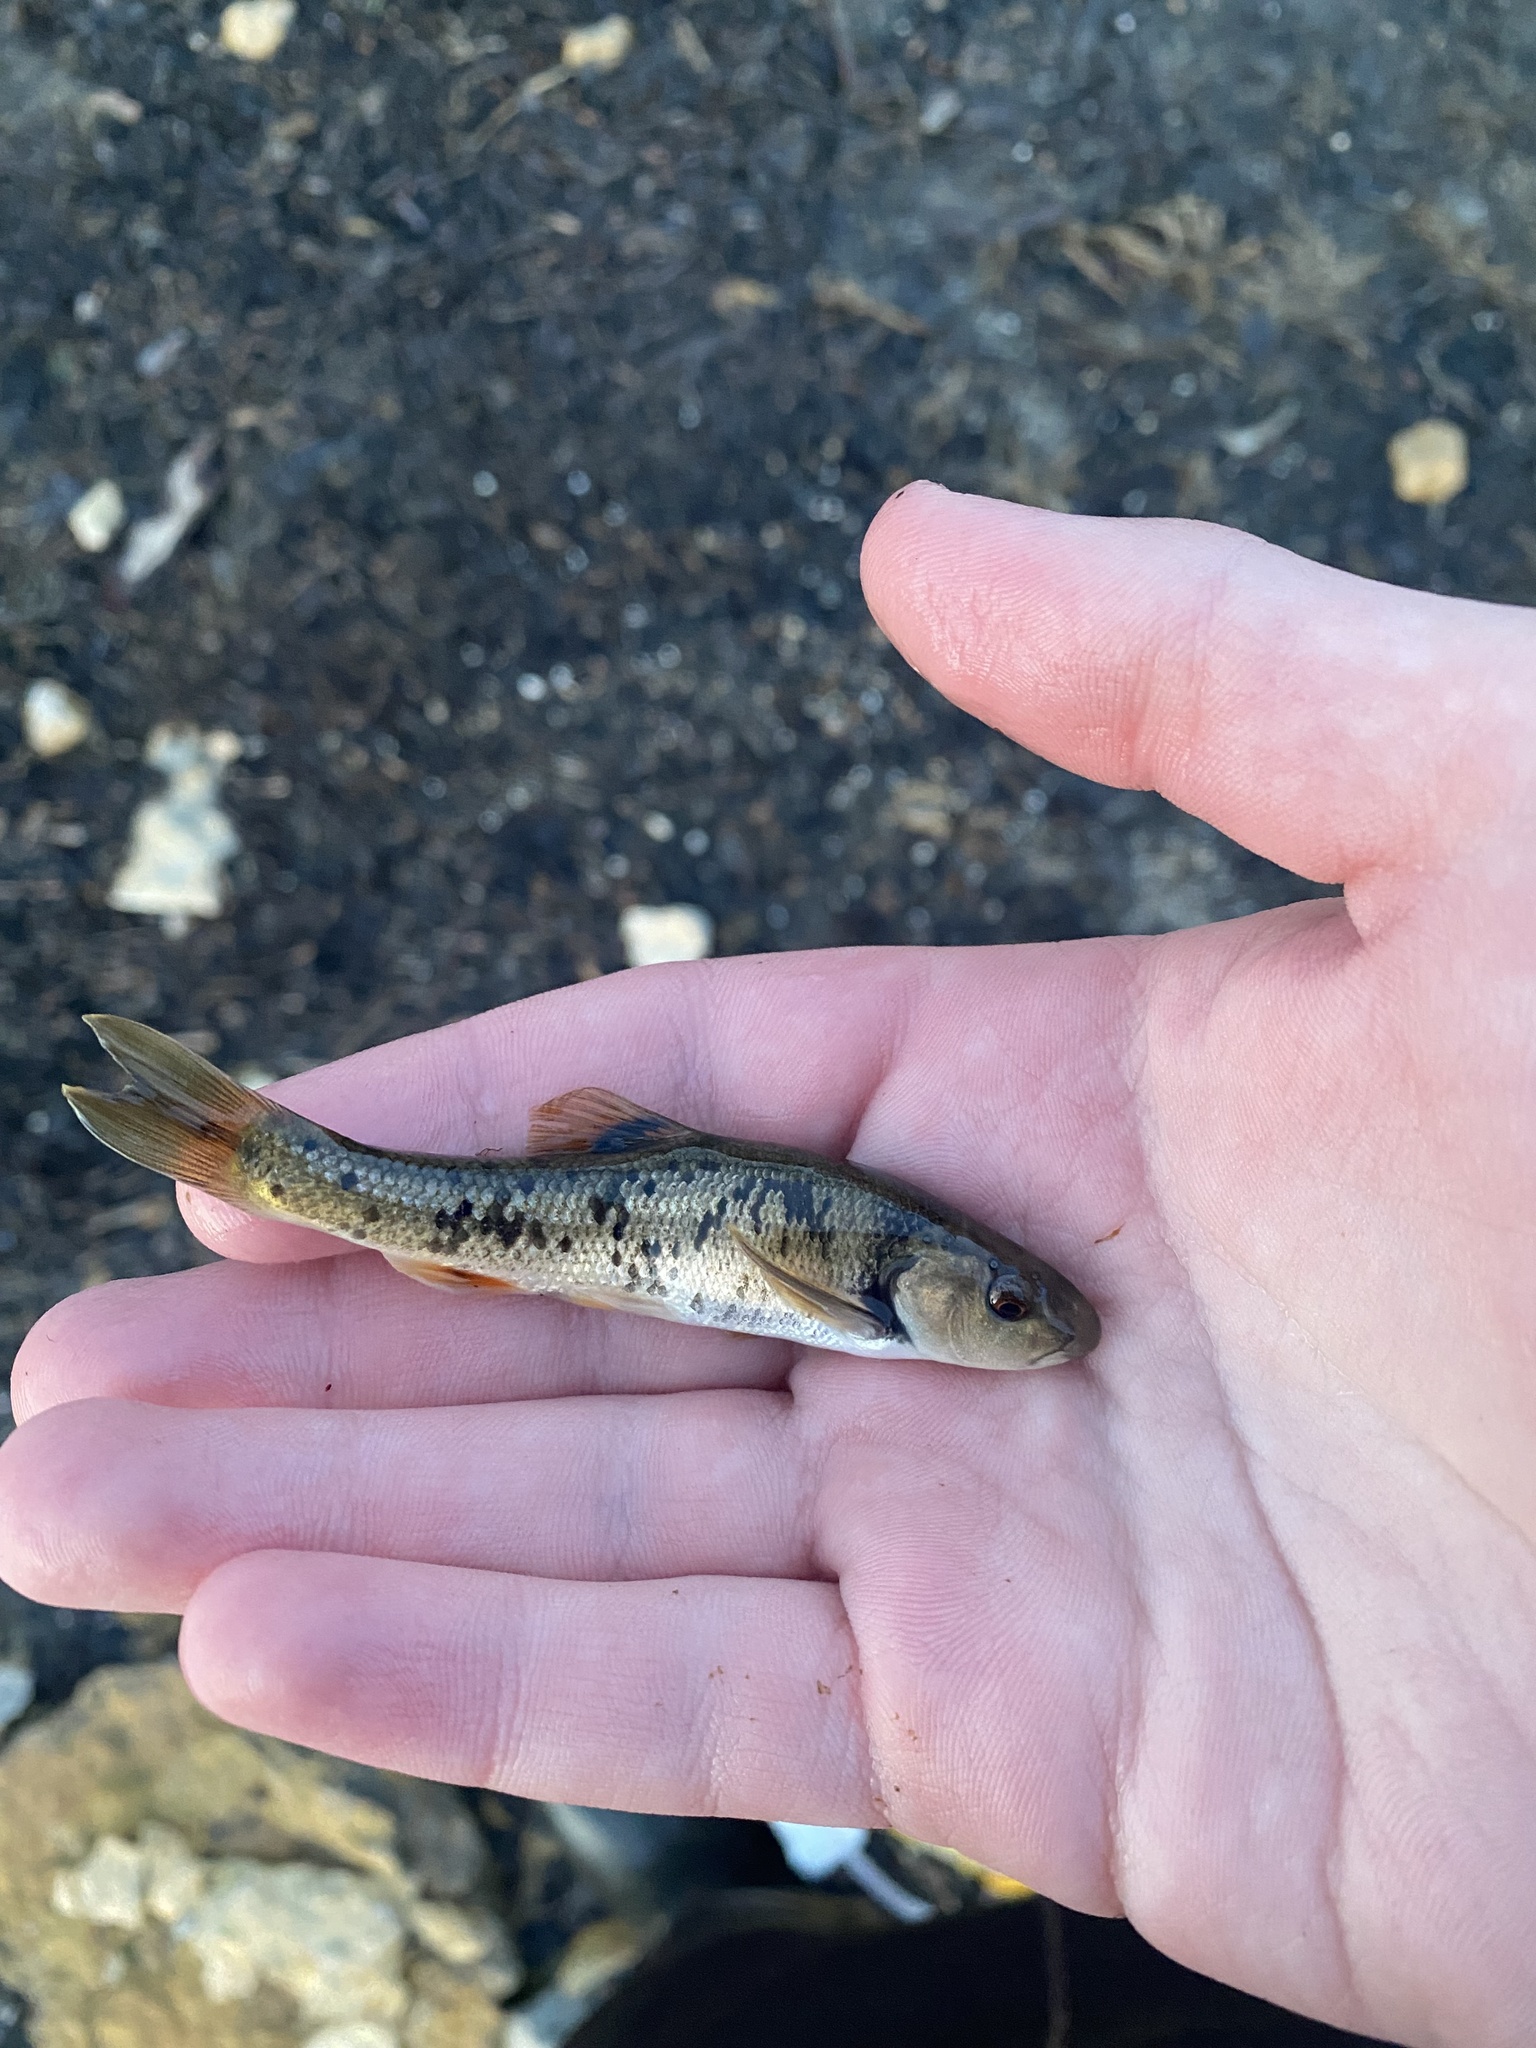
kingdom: Animalia
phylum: Chordata
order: Cypriniformes
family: Cyprinidae
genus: Campostoma
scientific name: Campostoma anomalum
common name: Central stoneroller
